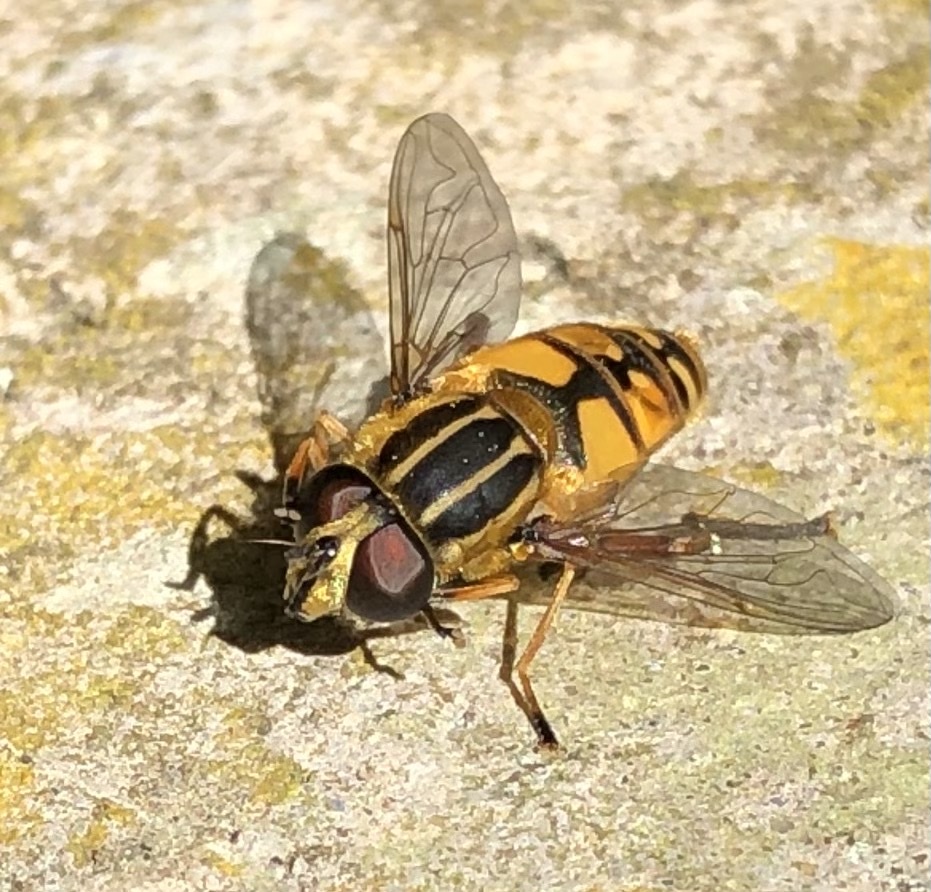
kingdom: Animalia
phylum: Arthropoda
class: Insecta
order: Diptera
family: Syrphidae
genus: Helophilus
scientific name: Helophilus pendulus
